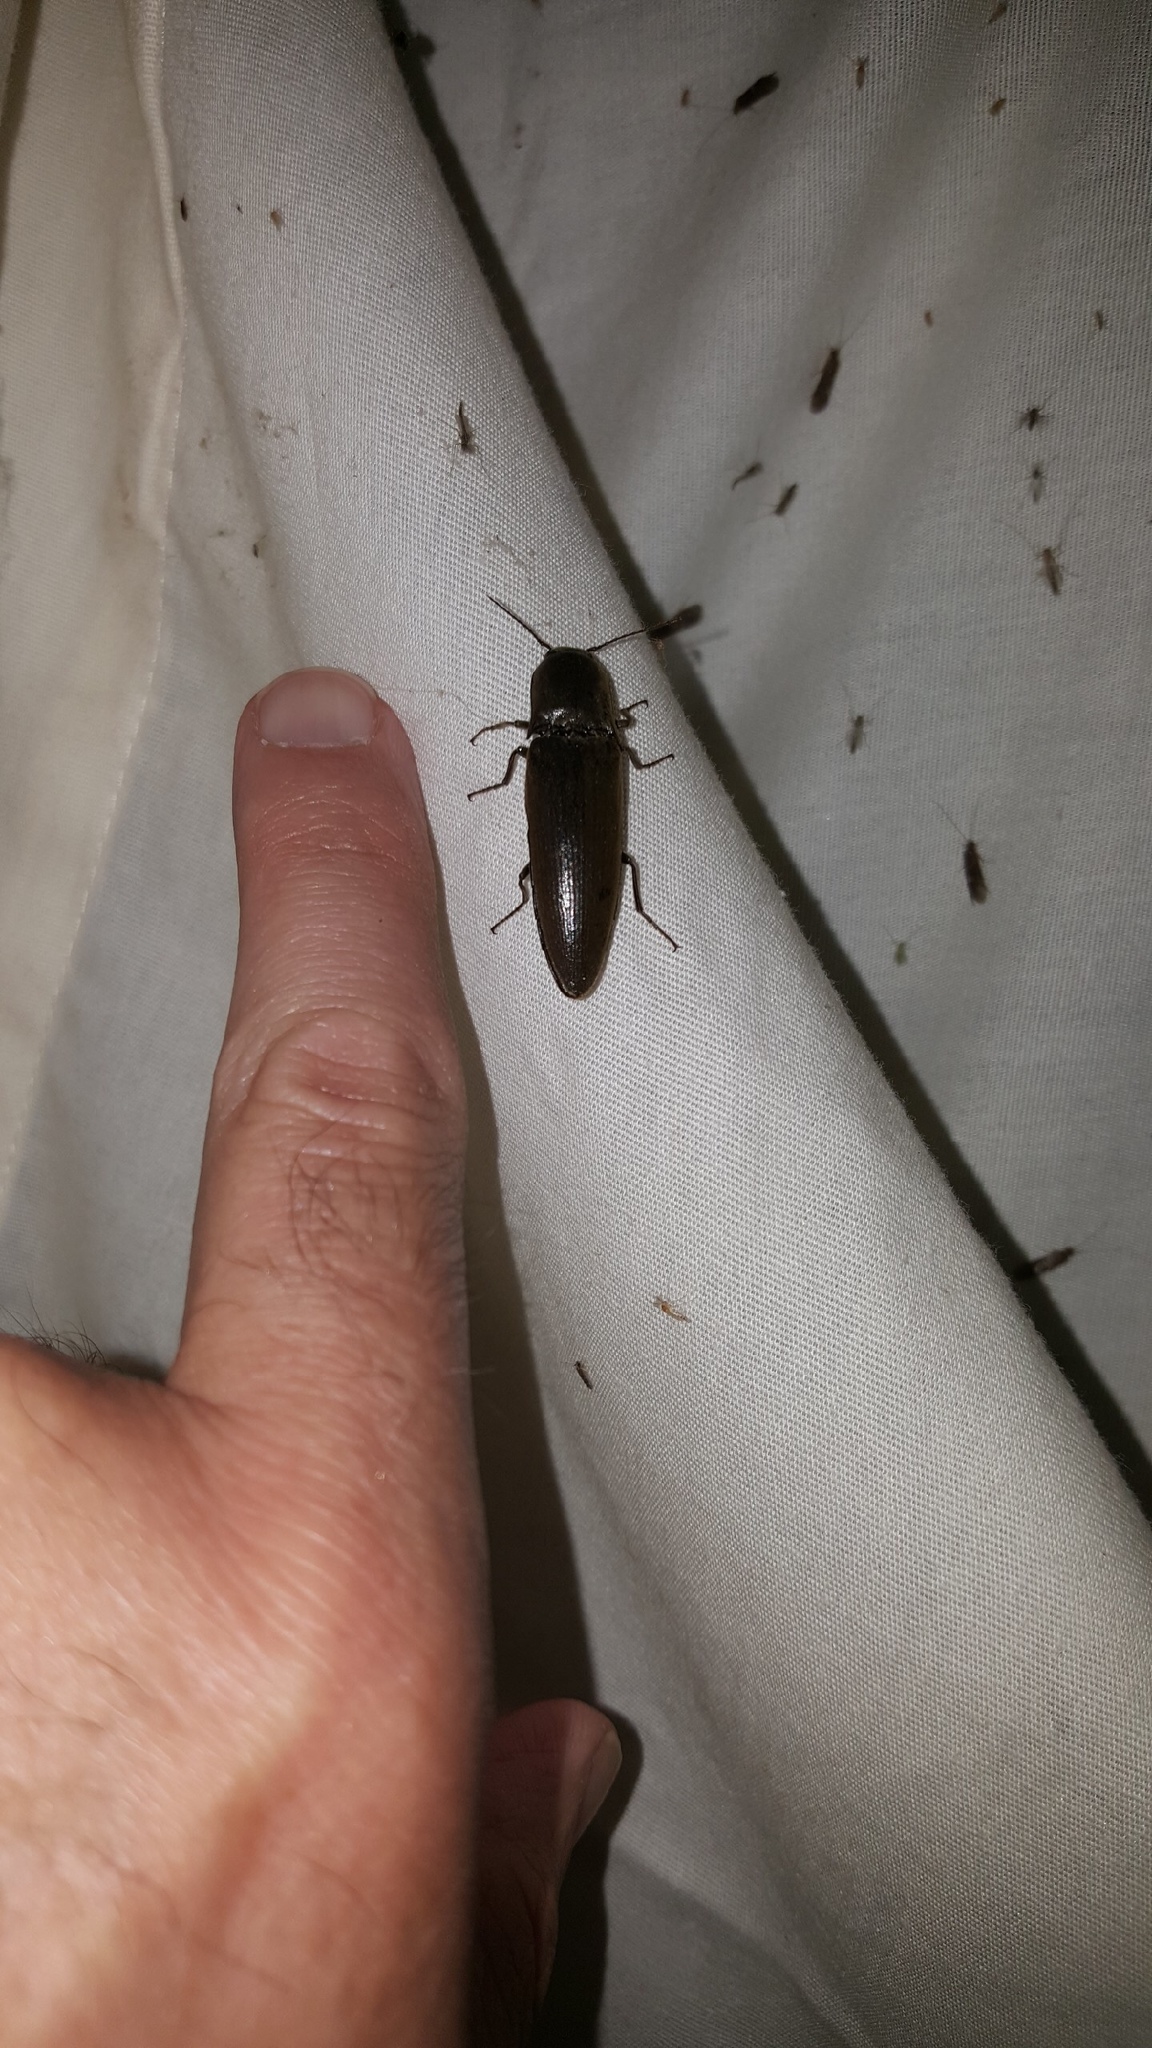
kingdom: Animalia
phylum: Arthropoda
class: Insecta
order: Coleoptera
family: Elateridae
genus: Orthostethus
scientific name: Orthostethus infuscatus
